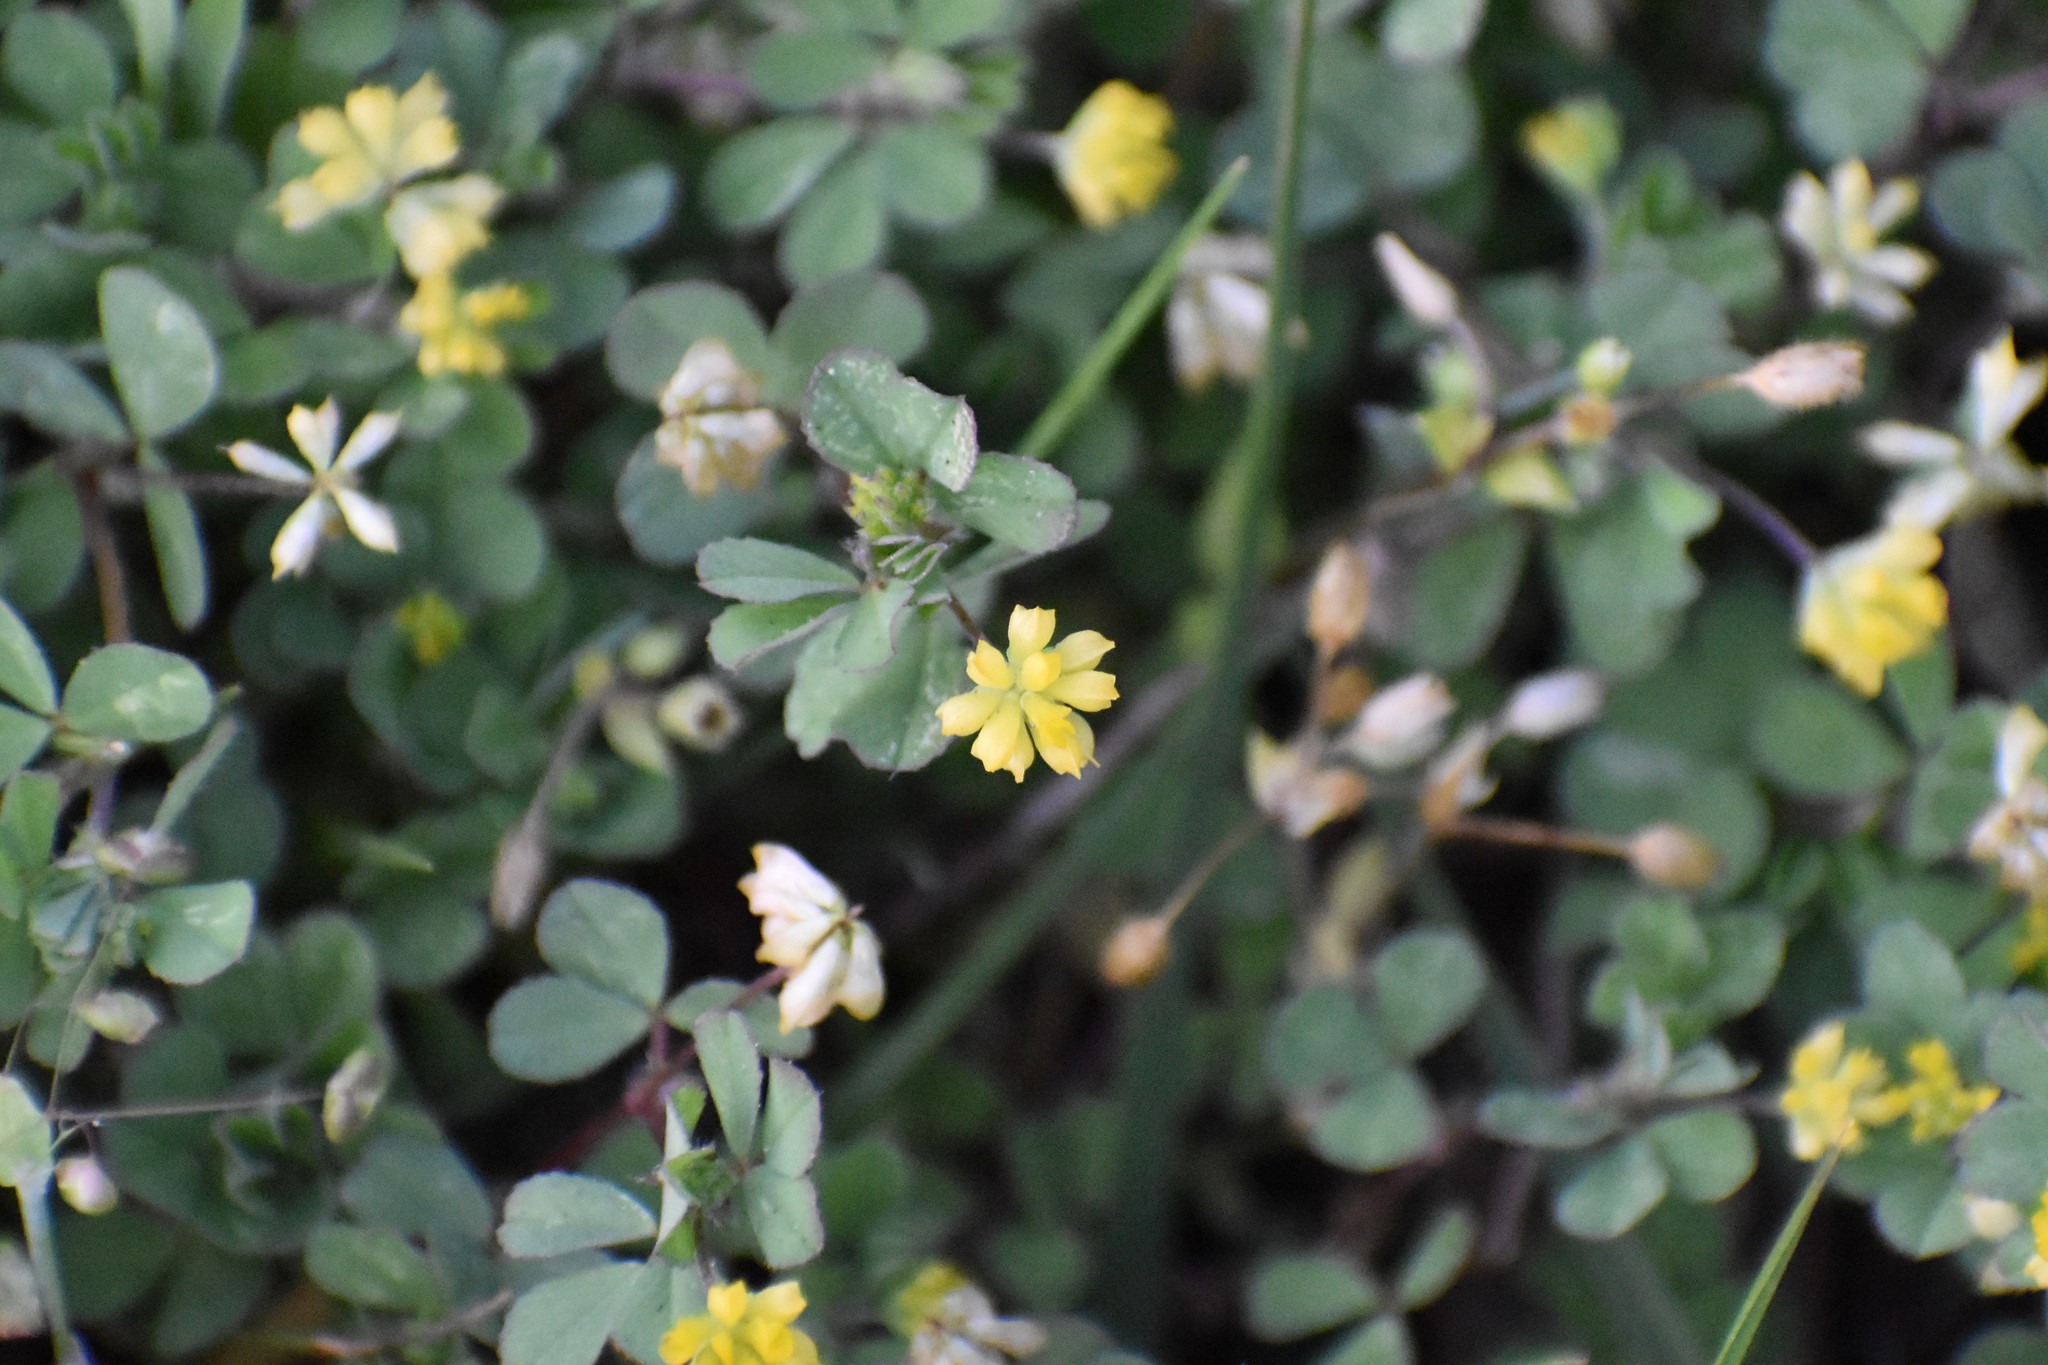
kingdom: Plantae
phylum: Tracheophyta
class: Magnoliopsida
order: Fabales
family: Fabaceae
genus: Trifolium
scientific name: Trifolium dubium
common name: Suckling clover
